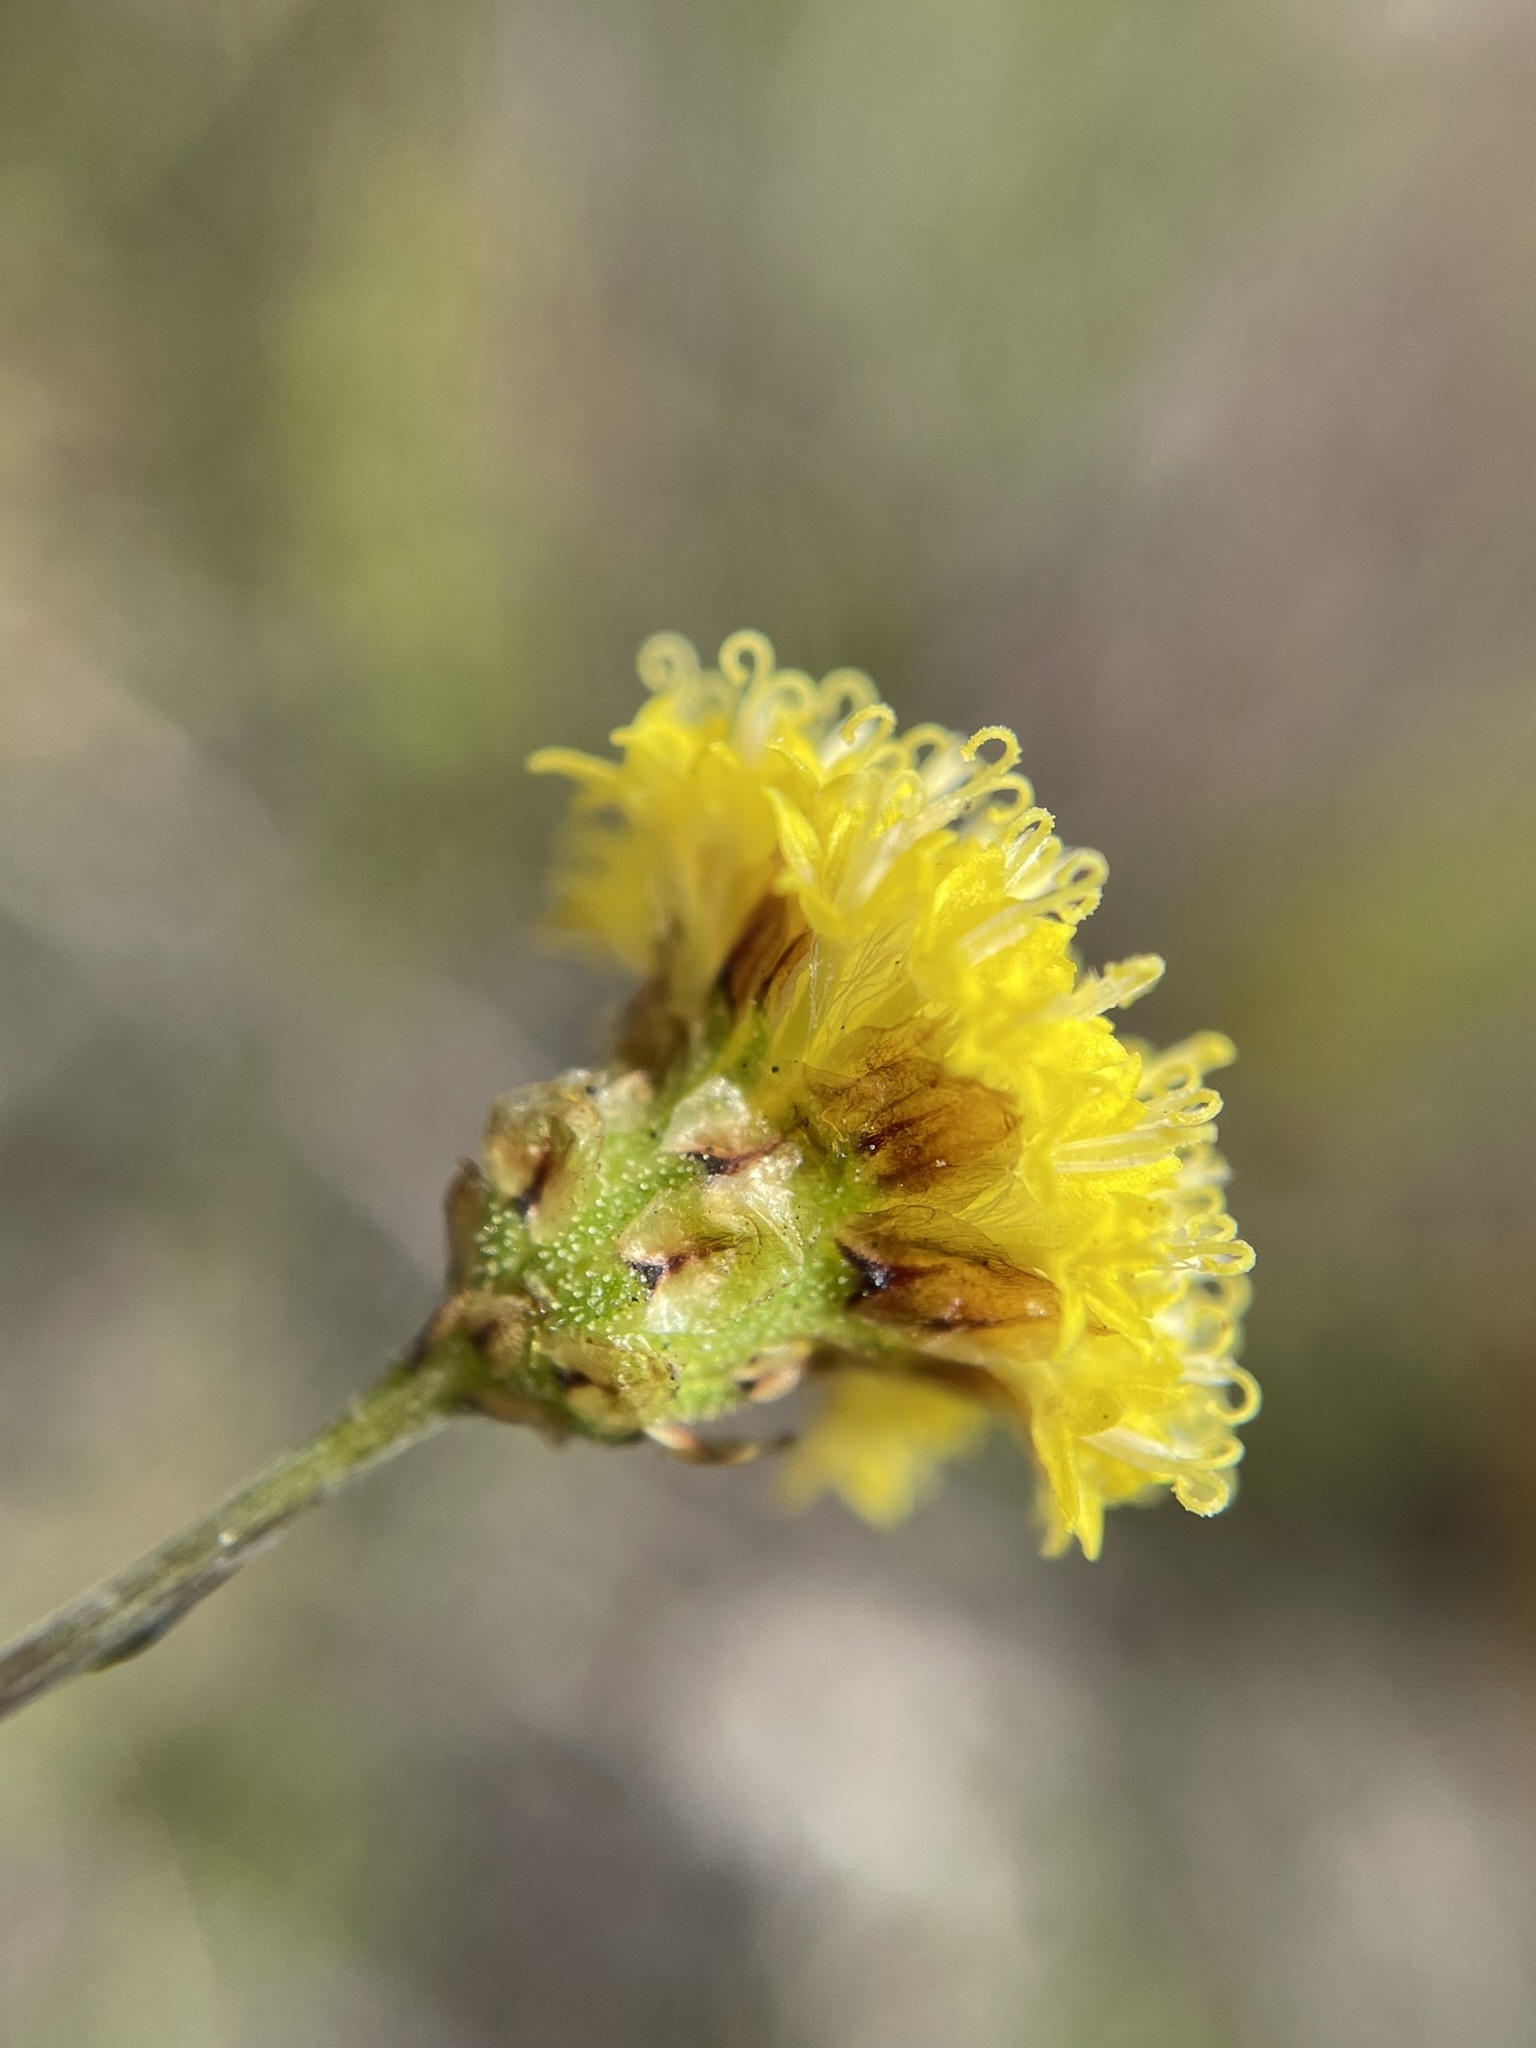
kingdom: Plantae
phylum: Tracheophyta
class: Magnoliopsida
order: Asterales
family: Asteraceae
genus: Leptorhynchos
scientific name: Leptorhynchos squamatus
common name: Scaly-buttons
